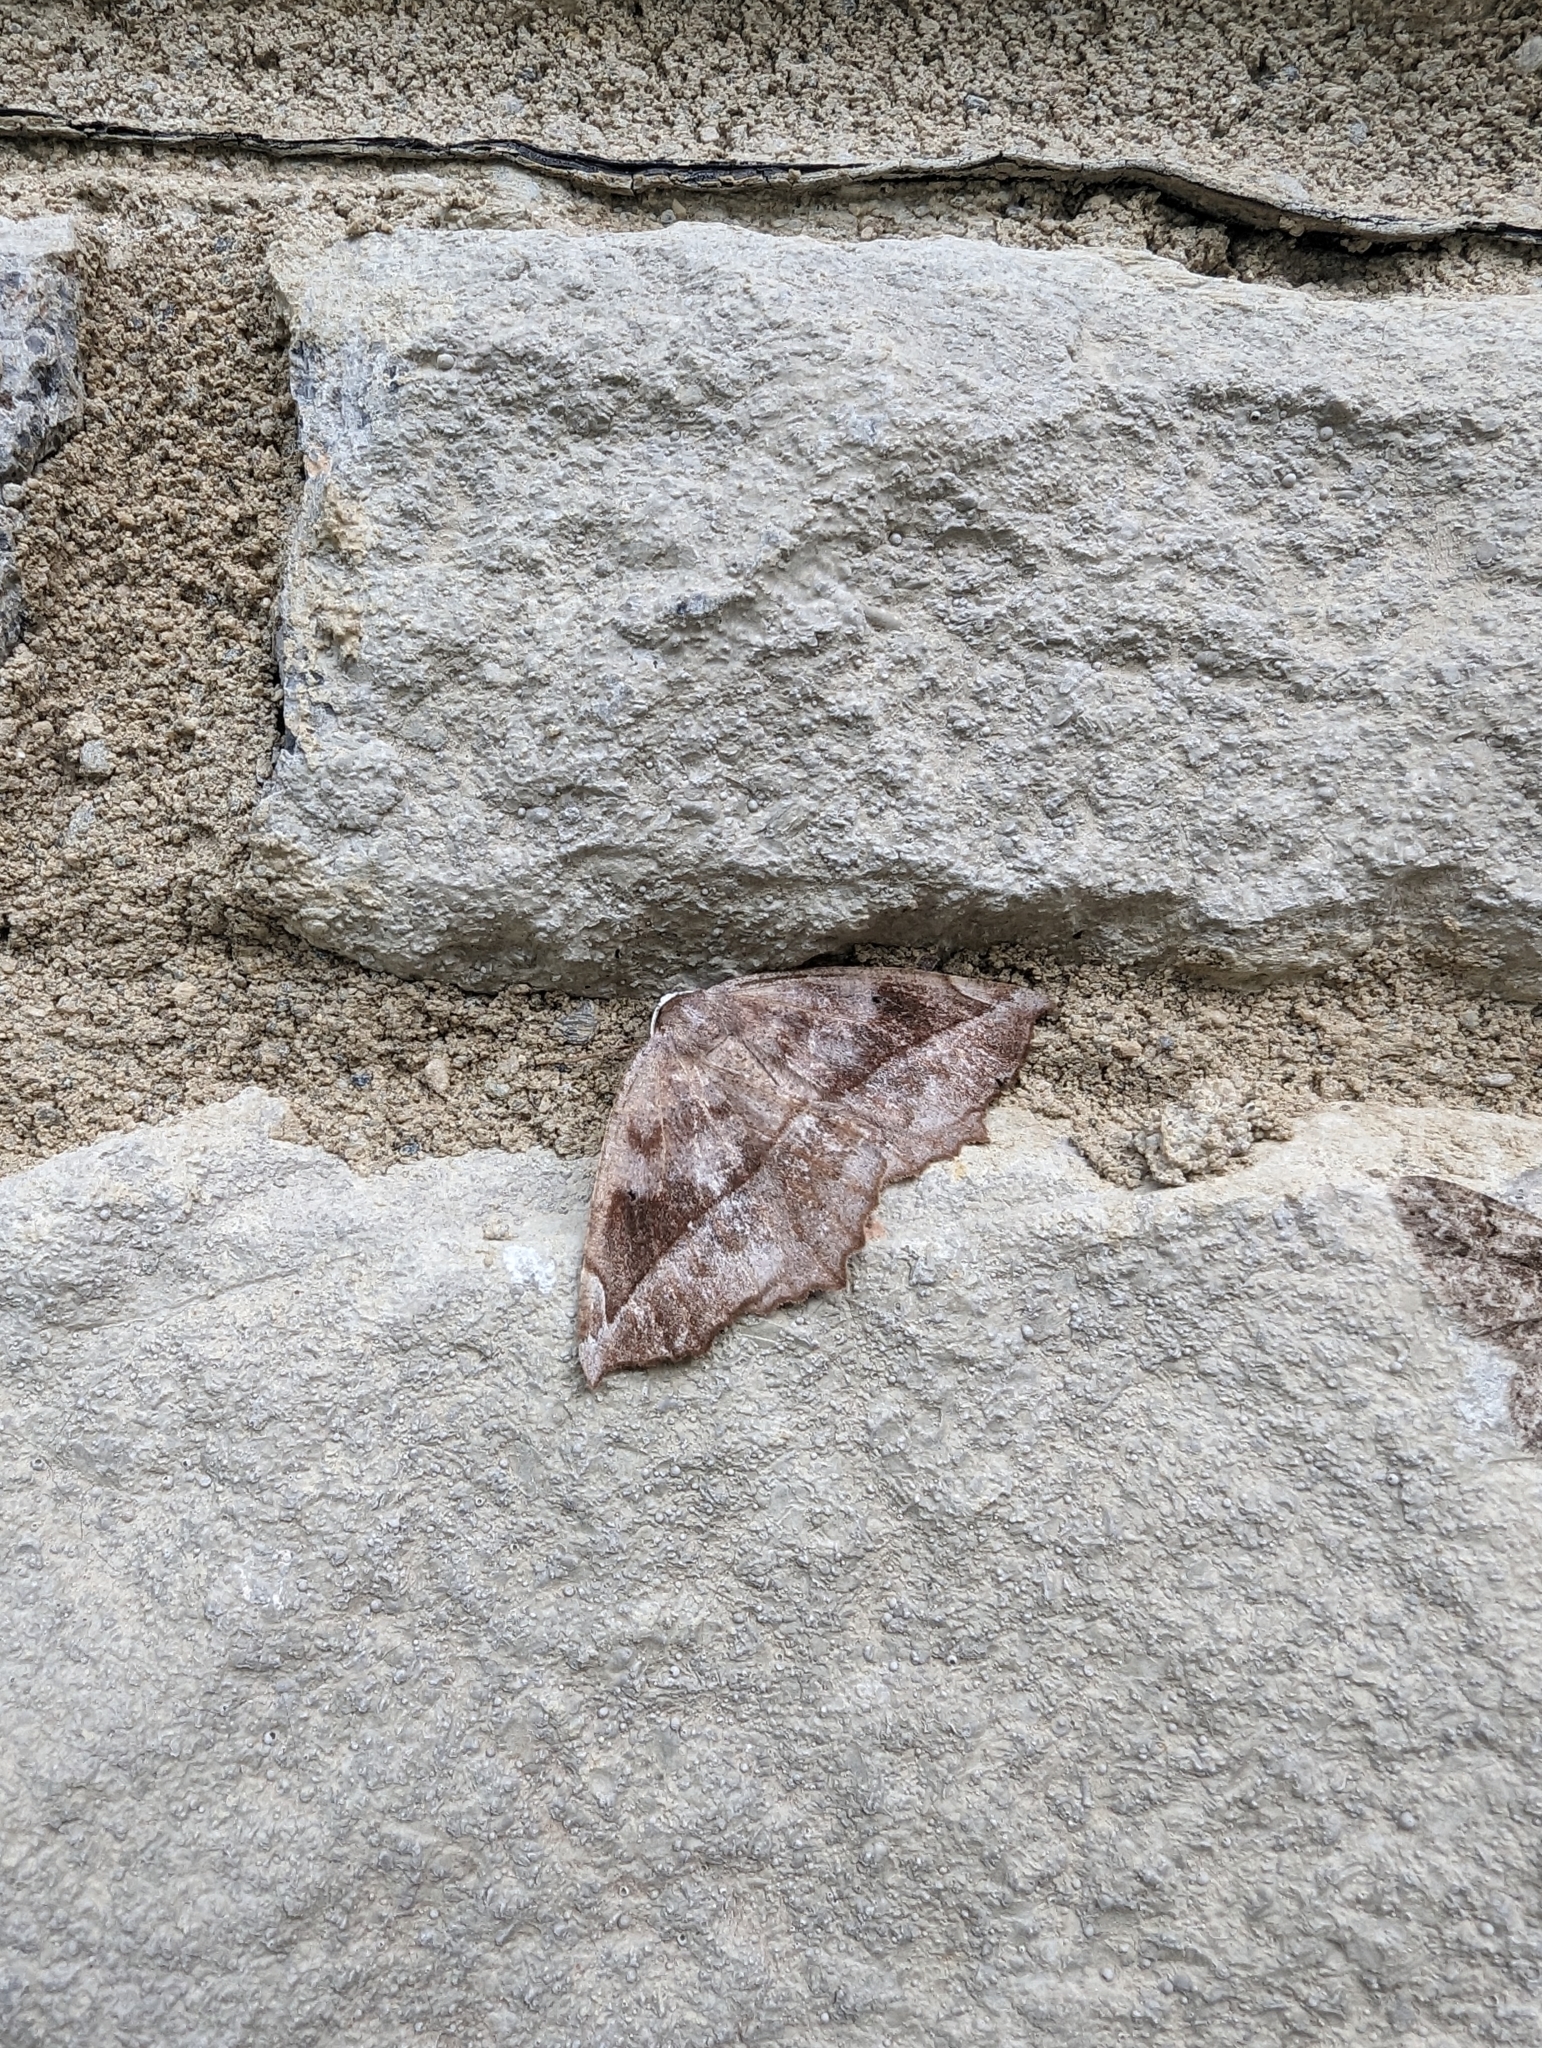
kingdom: Animalia
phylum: Arthropoda
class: Insecta
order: Lepidoptera
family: Geometridae
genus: Eutrapela
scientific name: Eutrapela clemataria
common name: Curved-toothed geometer
